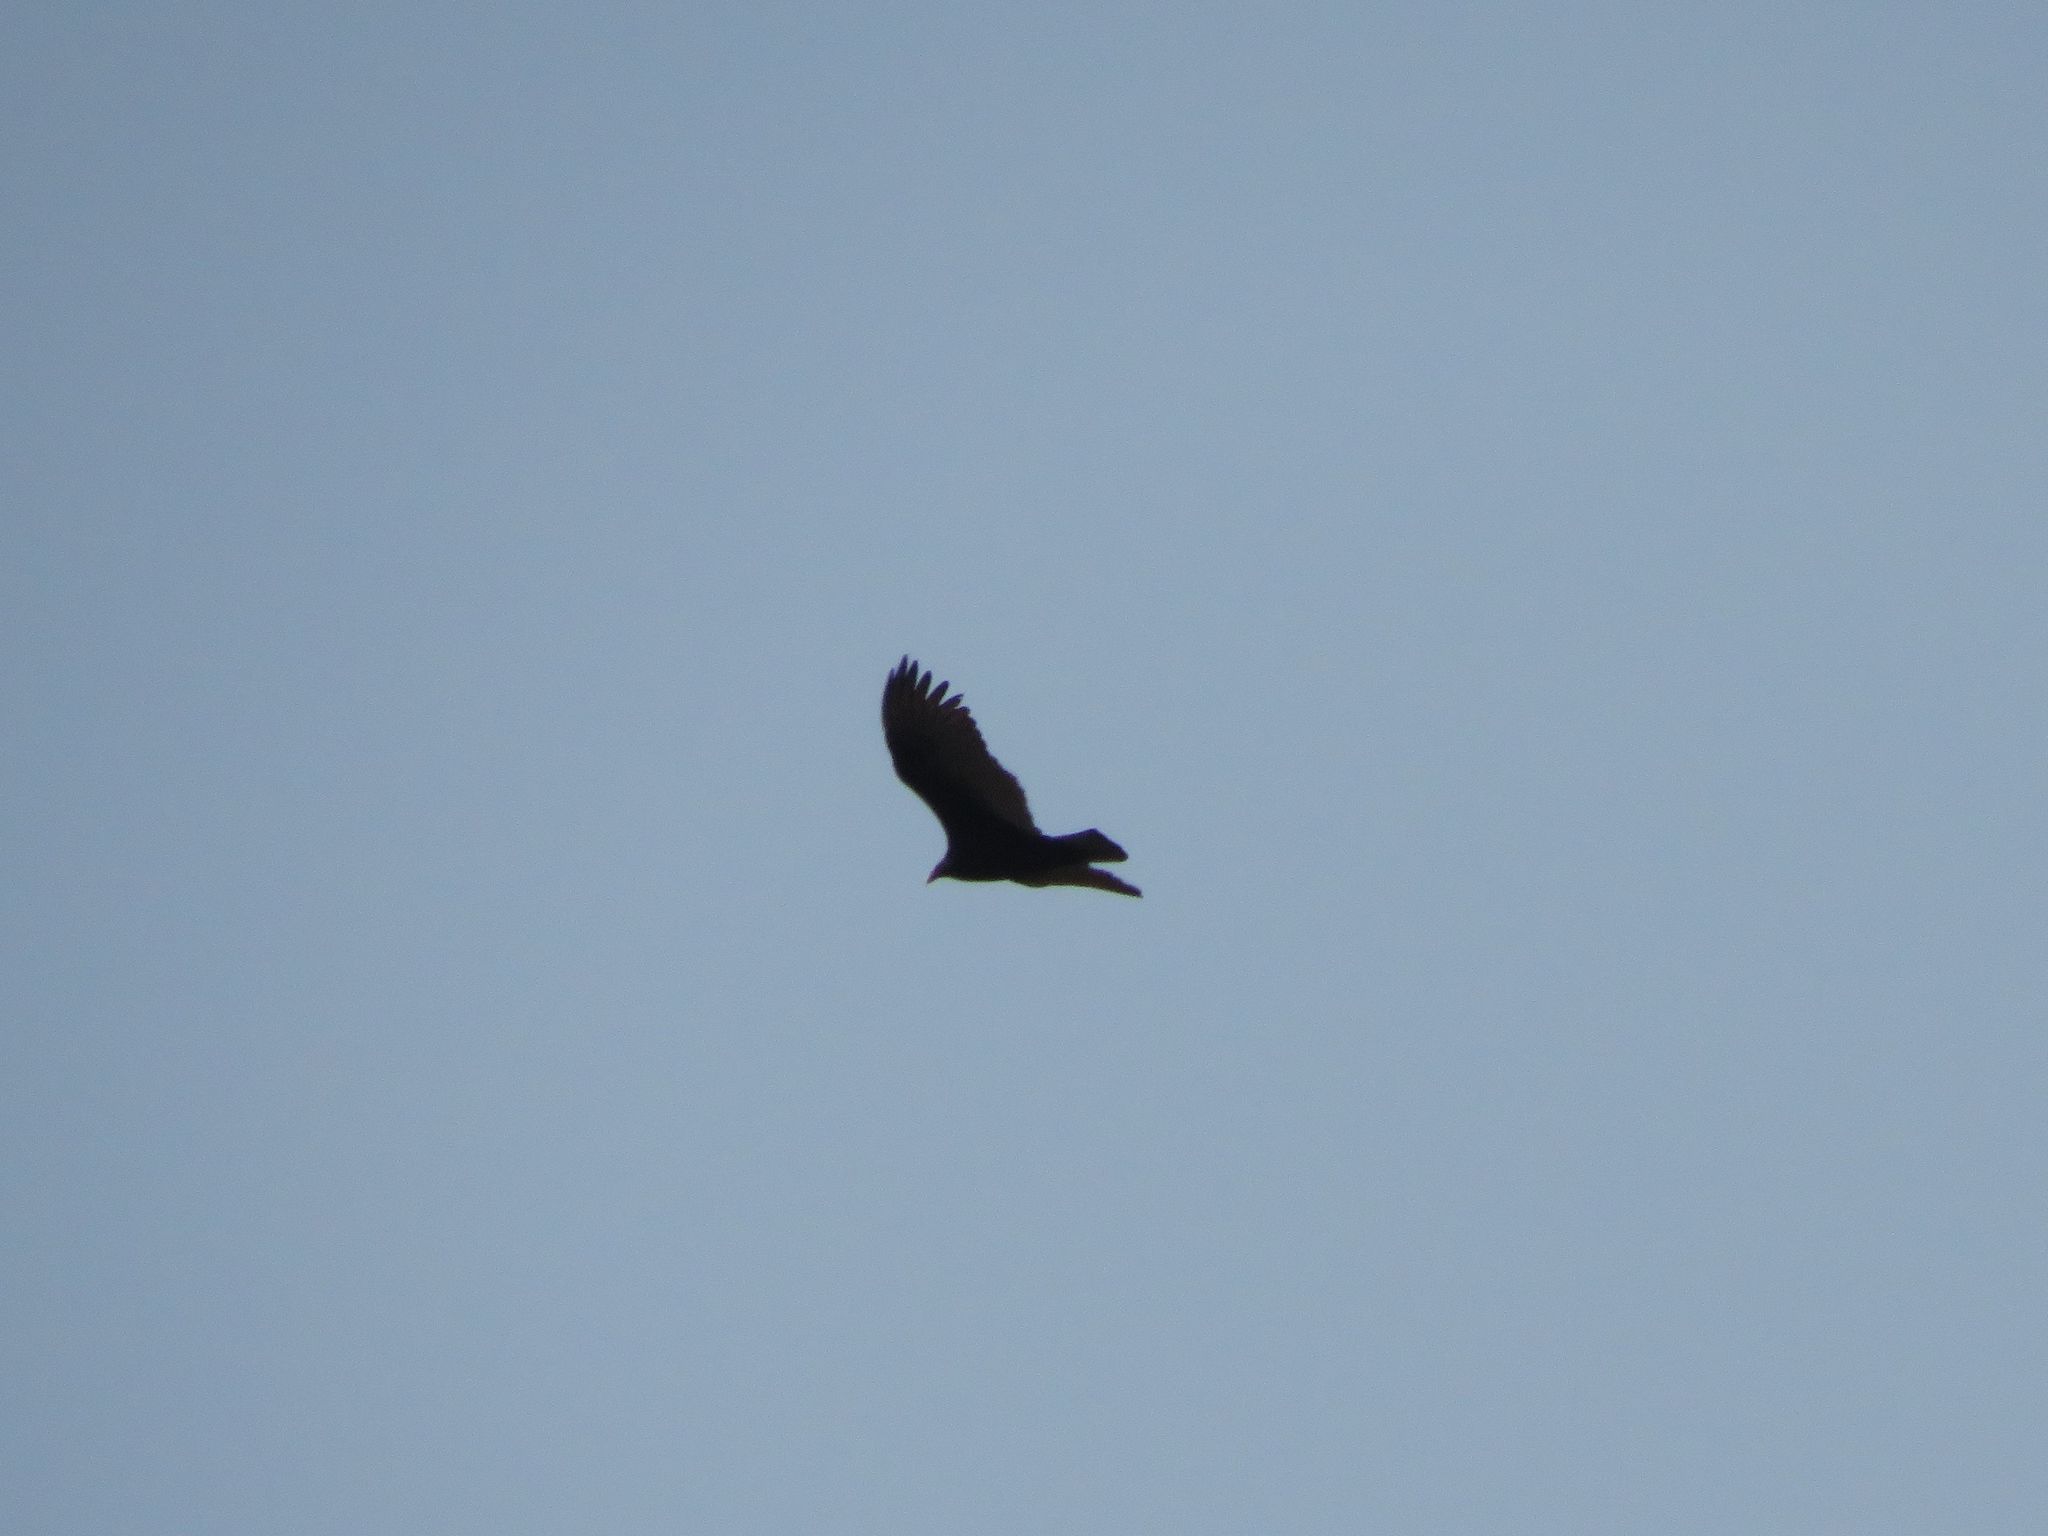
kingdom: Animalia
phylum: Chordata
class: Aves
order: Accipitriformes
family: Cathartidae
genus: Cathartes
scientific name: Cathartes aura
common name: Turkey vulture
